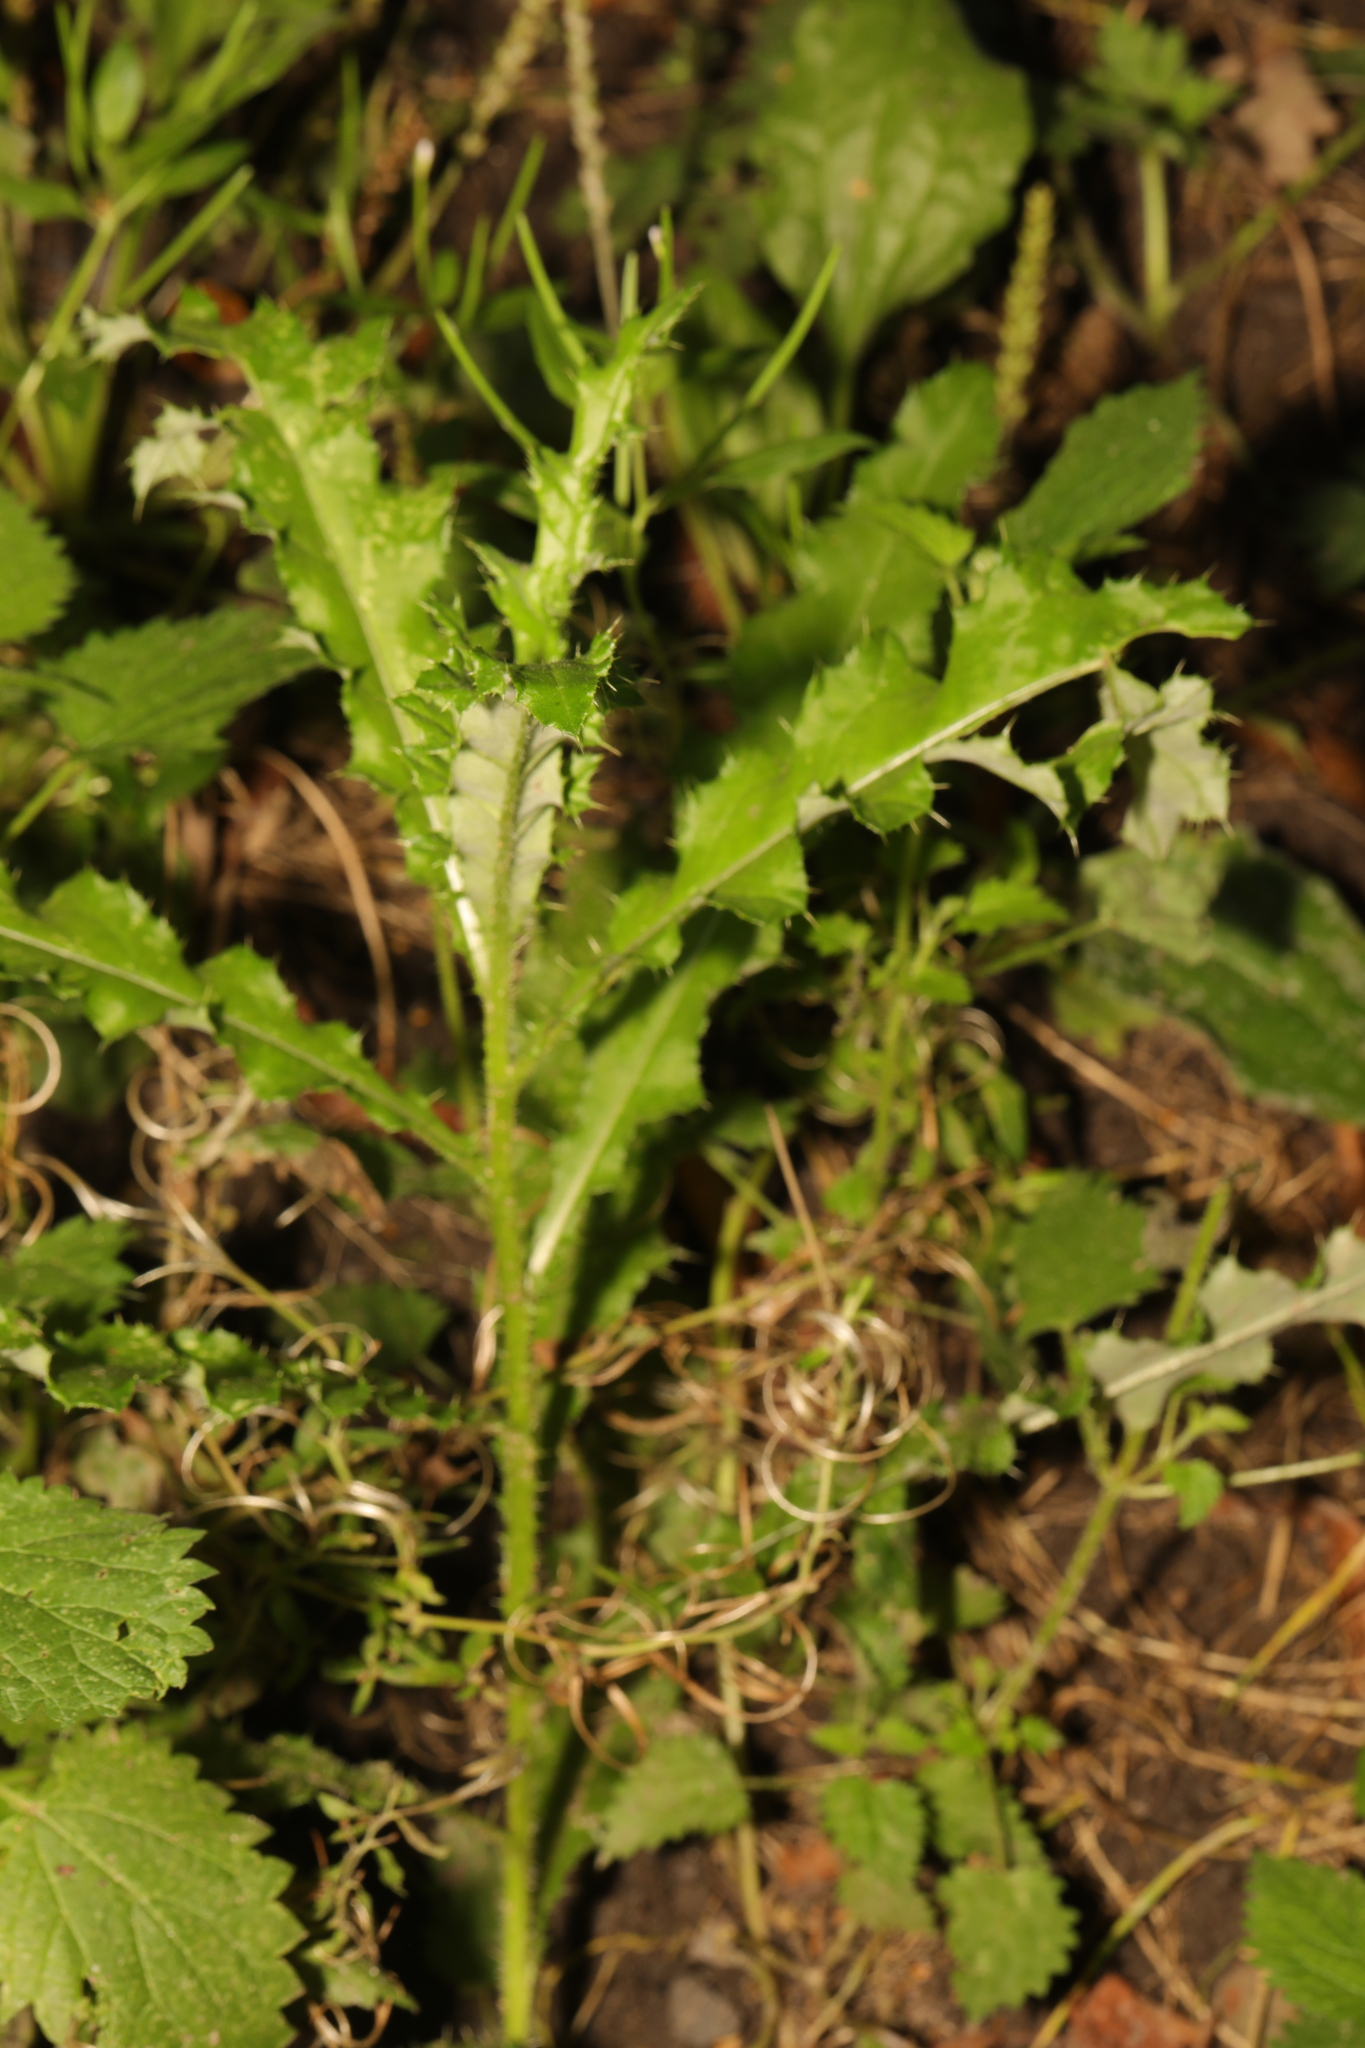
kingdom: Plantae
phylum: Tracheophyta
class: Magnoliopsida
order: Asterales
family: Asteraceae
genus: Cirsium
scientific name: Cirsium arvense
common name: Creeping thistle
